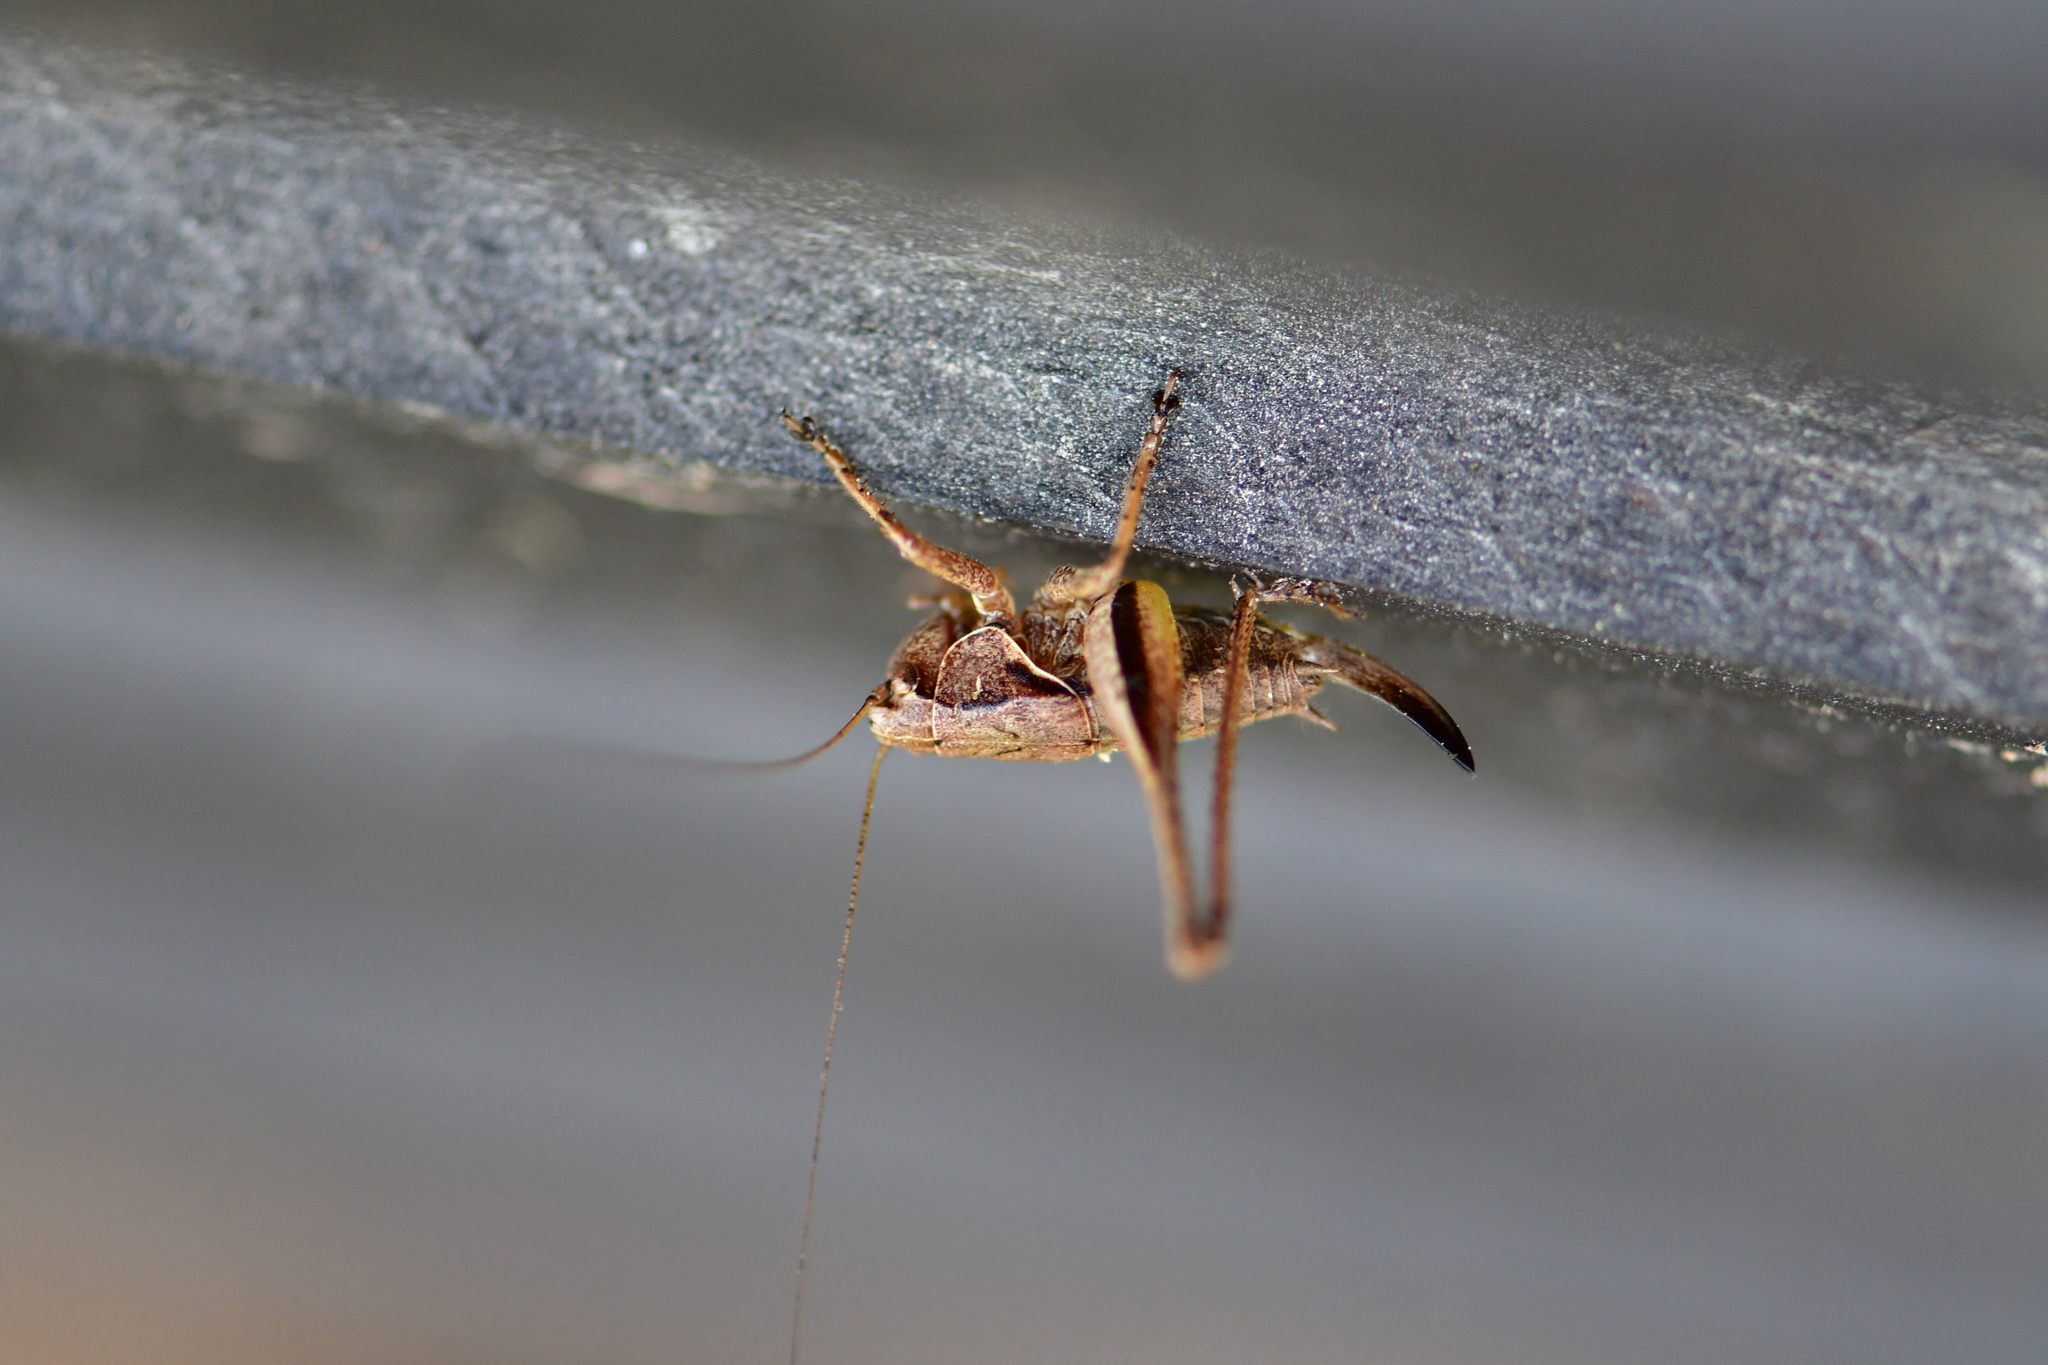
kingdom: Animalia
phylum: Arthropoda
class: Insecta
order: Orthoptera
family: Tettigoniidae
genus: Pholidoptera
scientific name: Pholidoptera griseoaptera
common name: Dark bush-cricket
